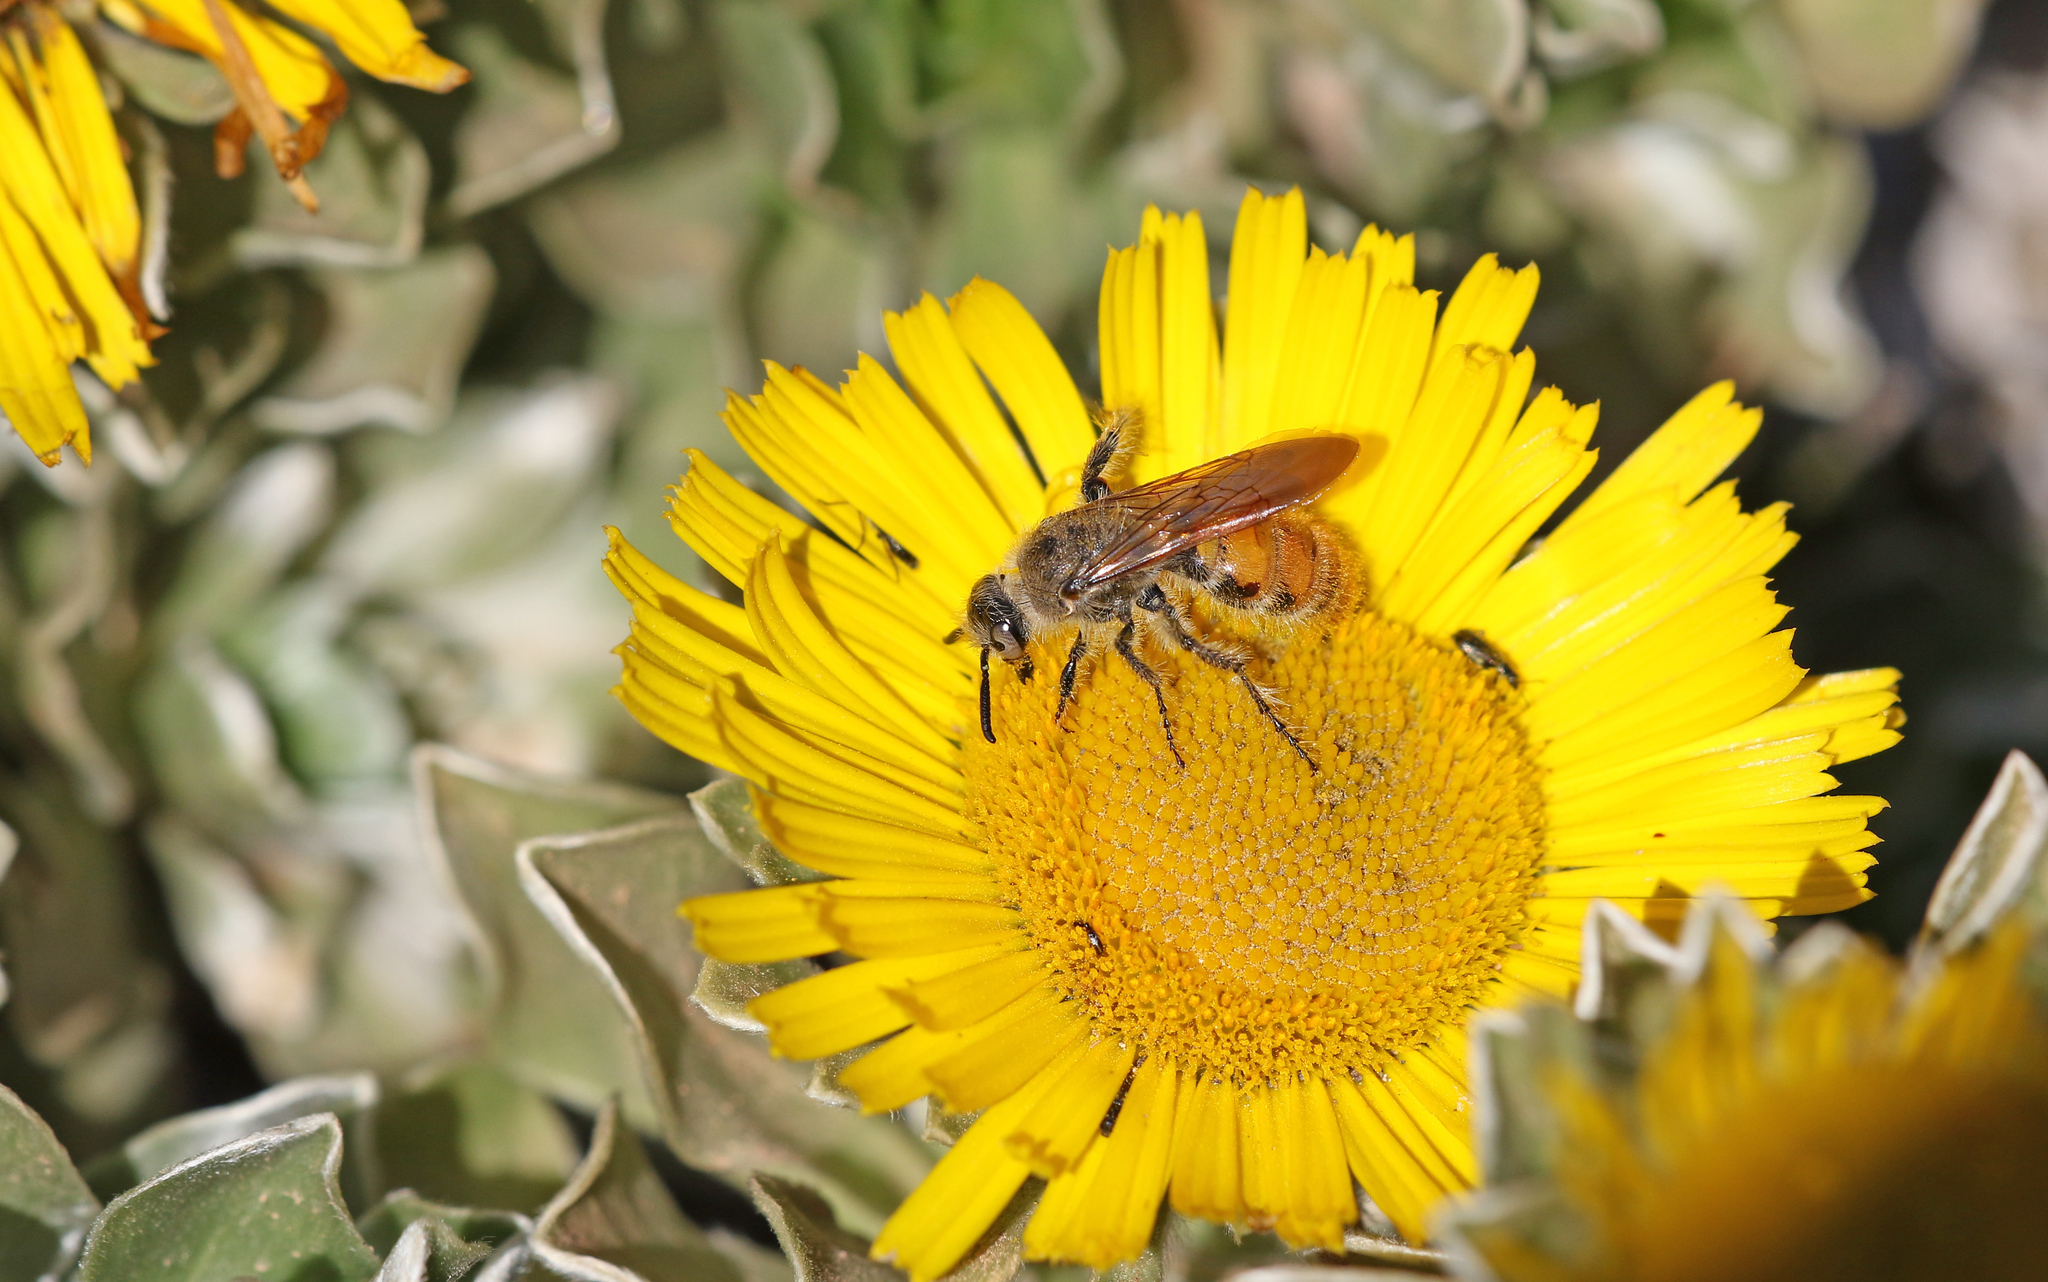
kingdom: Animalia
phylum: Arthropoda
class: Insecta
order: Hymenoptera
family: Scoliidae
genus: Micromeriella
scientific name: Micromeriella aureola
